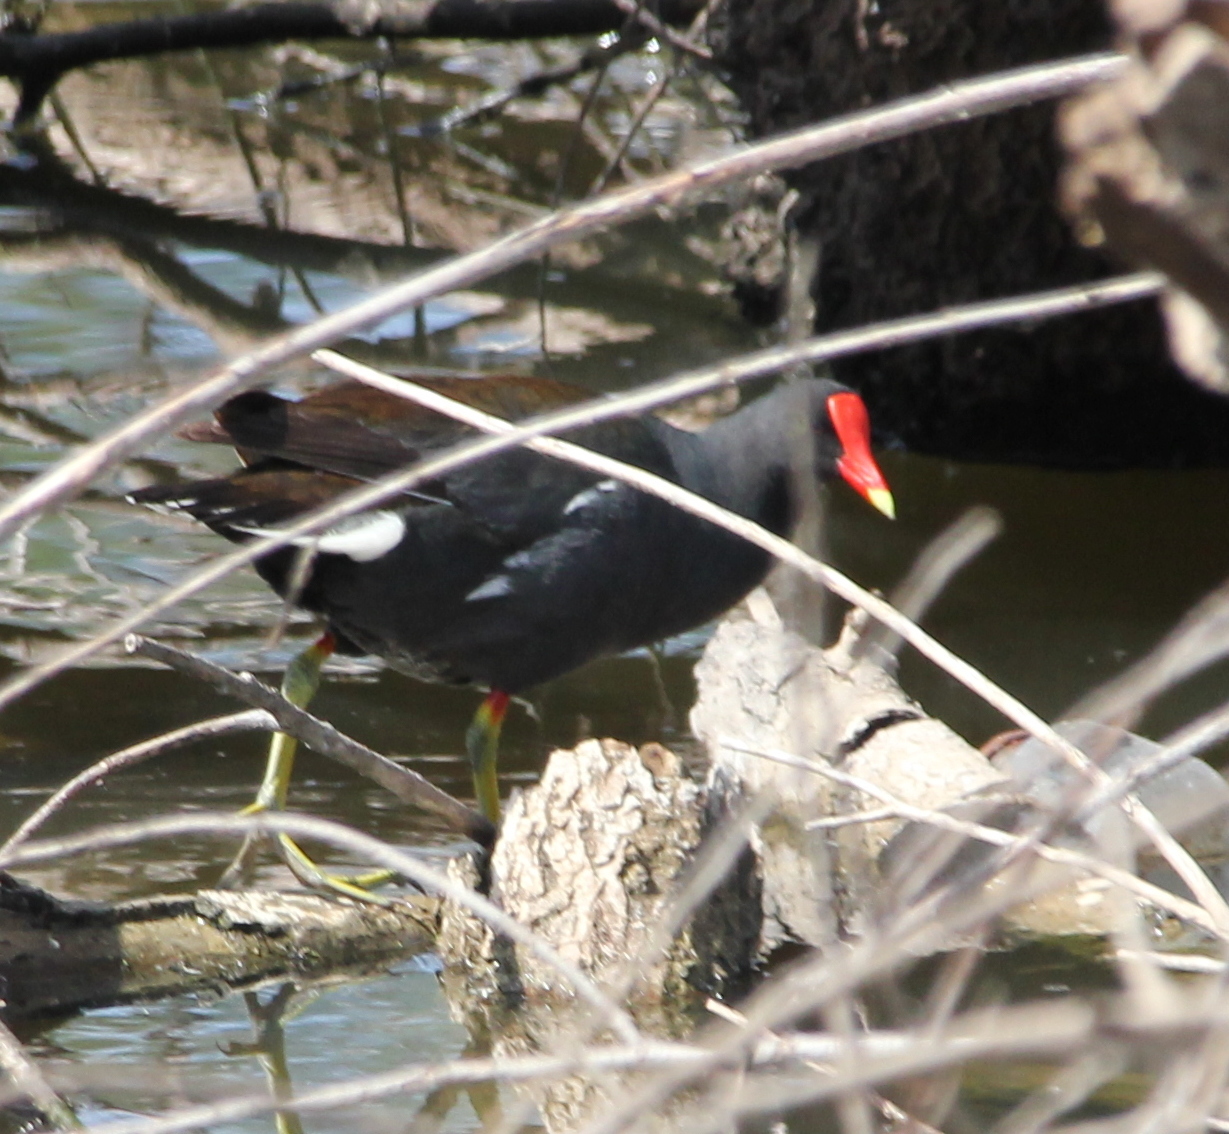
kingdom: Animalia
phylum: Chordata
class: Aves
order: Gruiformes
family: Rallidae
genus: Gallinula
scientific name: Gallinula chloropus
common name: Common moorhen
